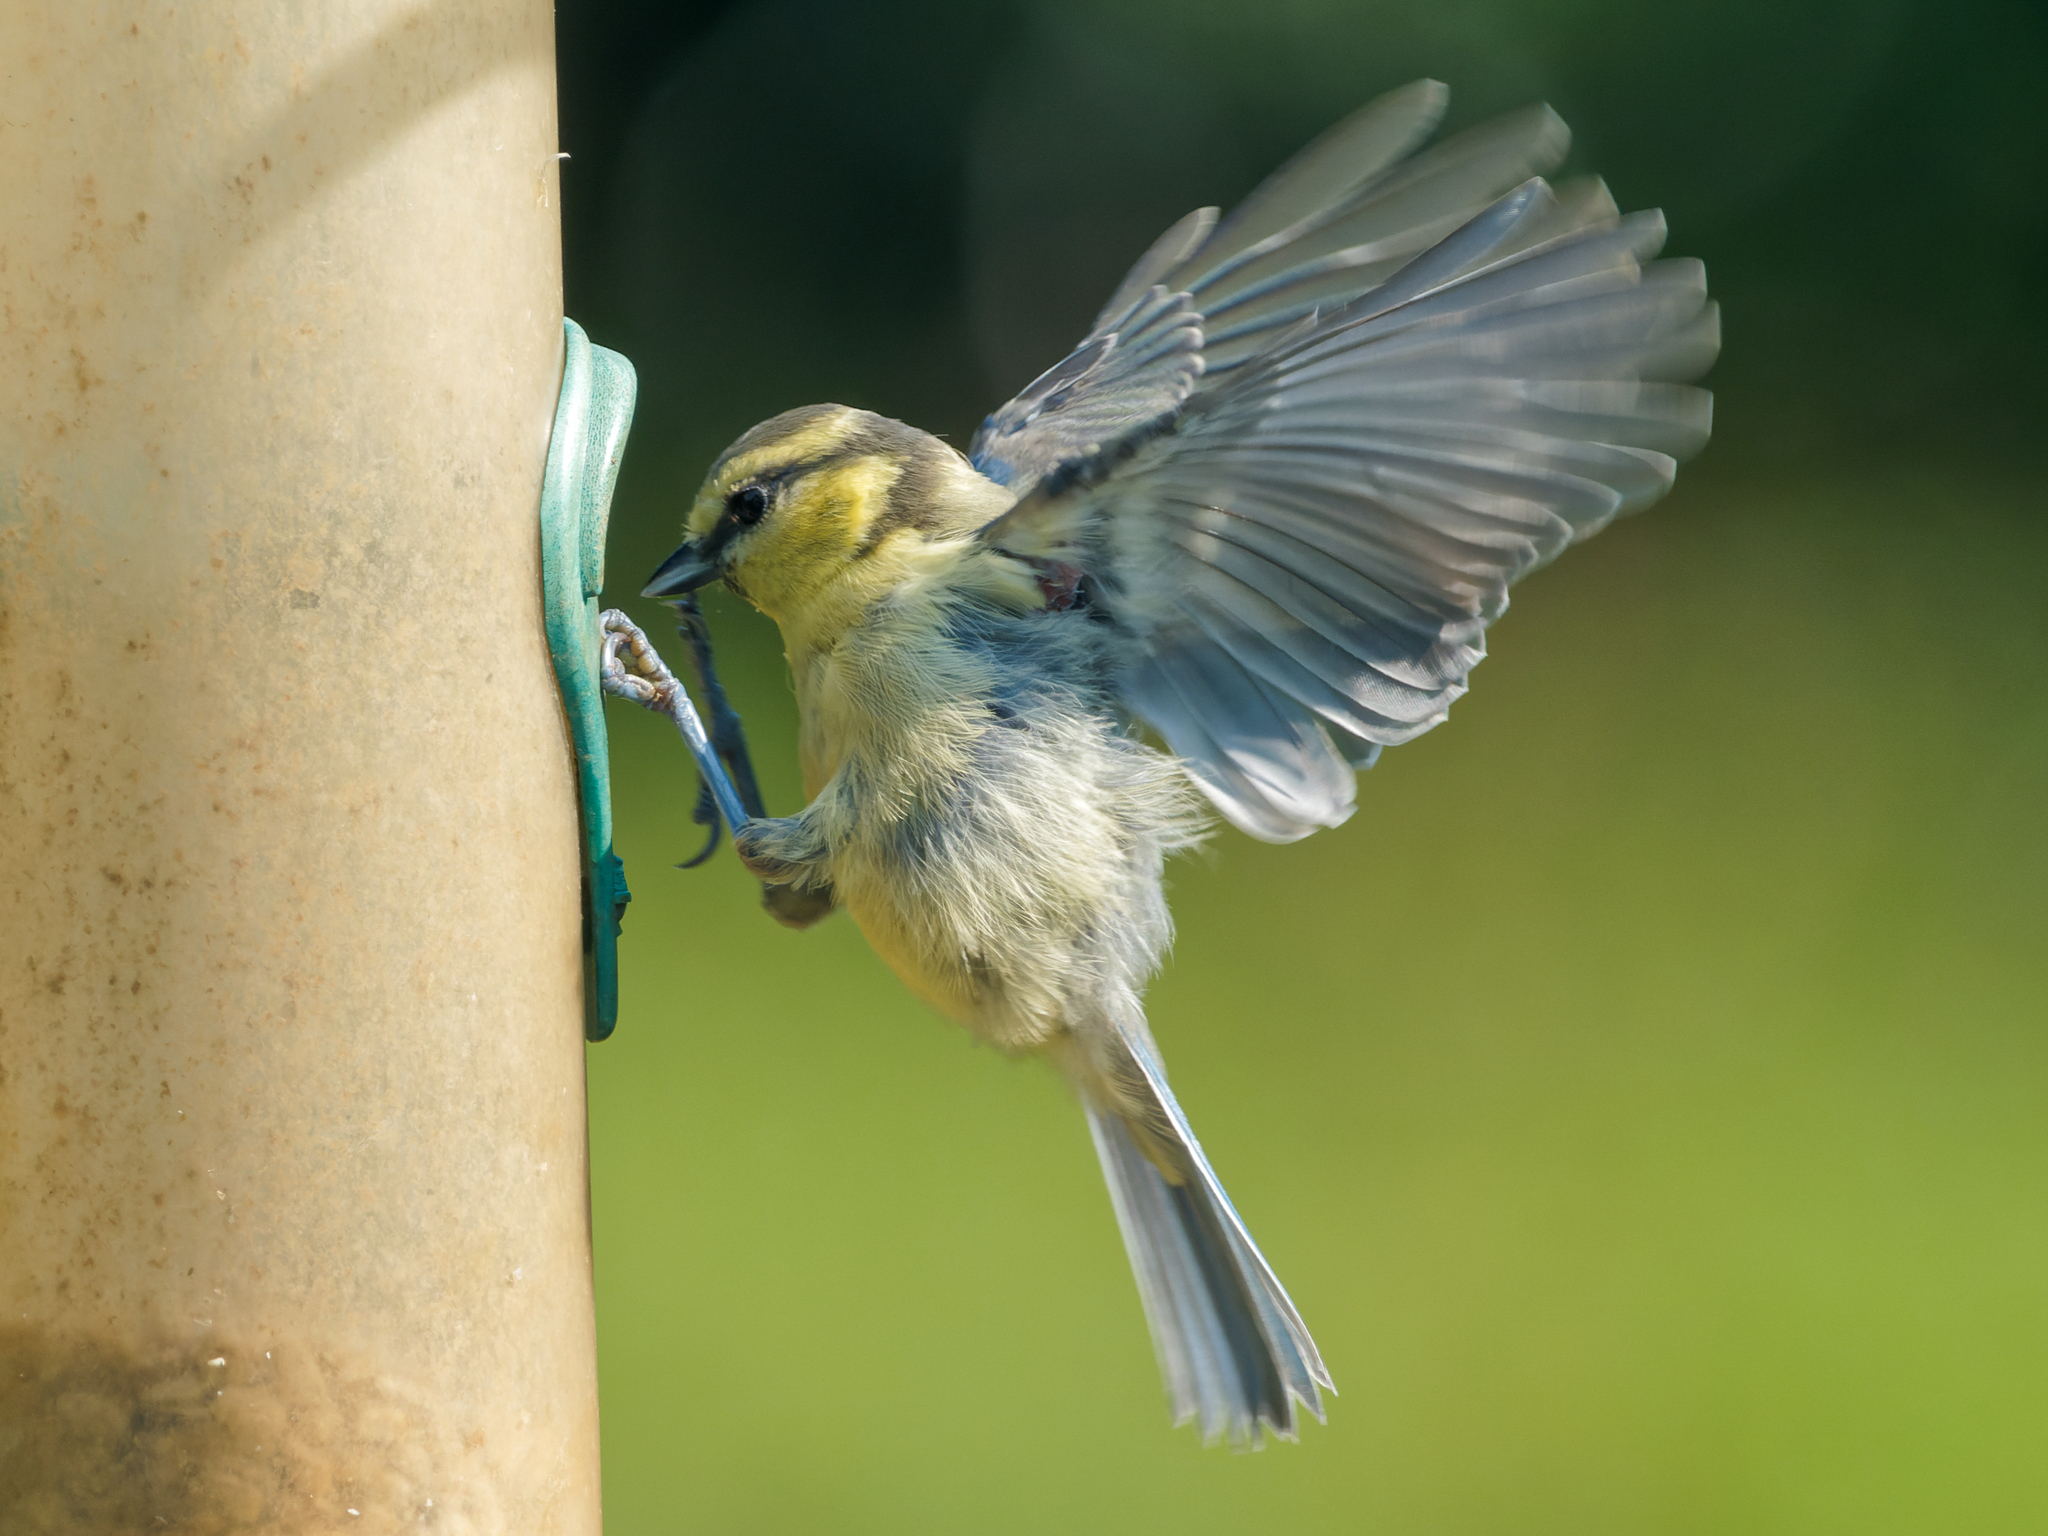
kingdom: Animalia
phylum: Chordata
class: Aves
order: Passeriformes
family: Paridae
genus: Cyanistes
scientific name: Cyanistes caeruleus
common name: Eurasian blue tit
